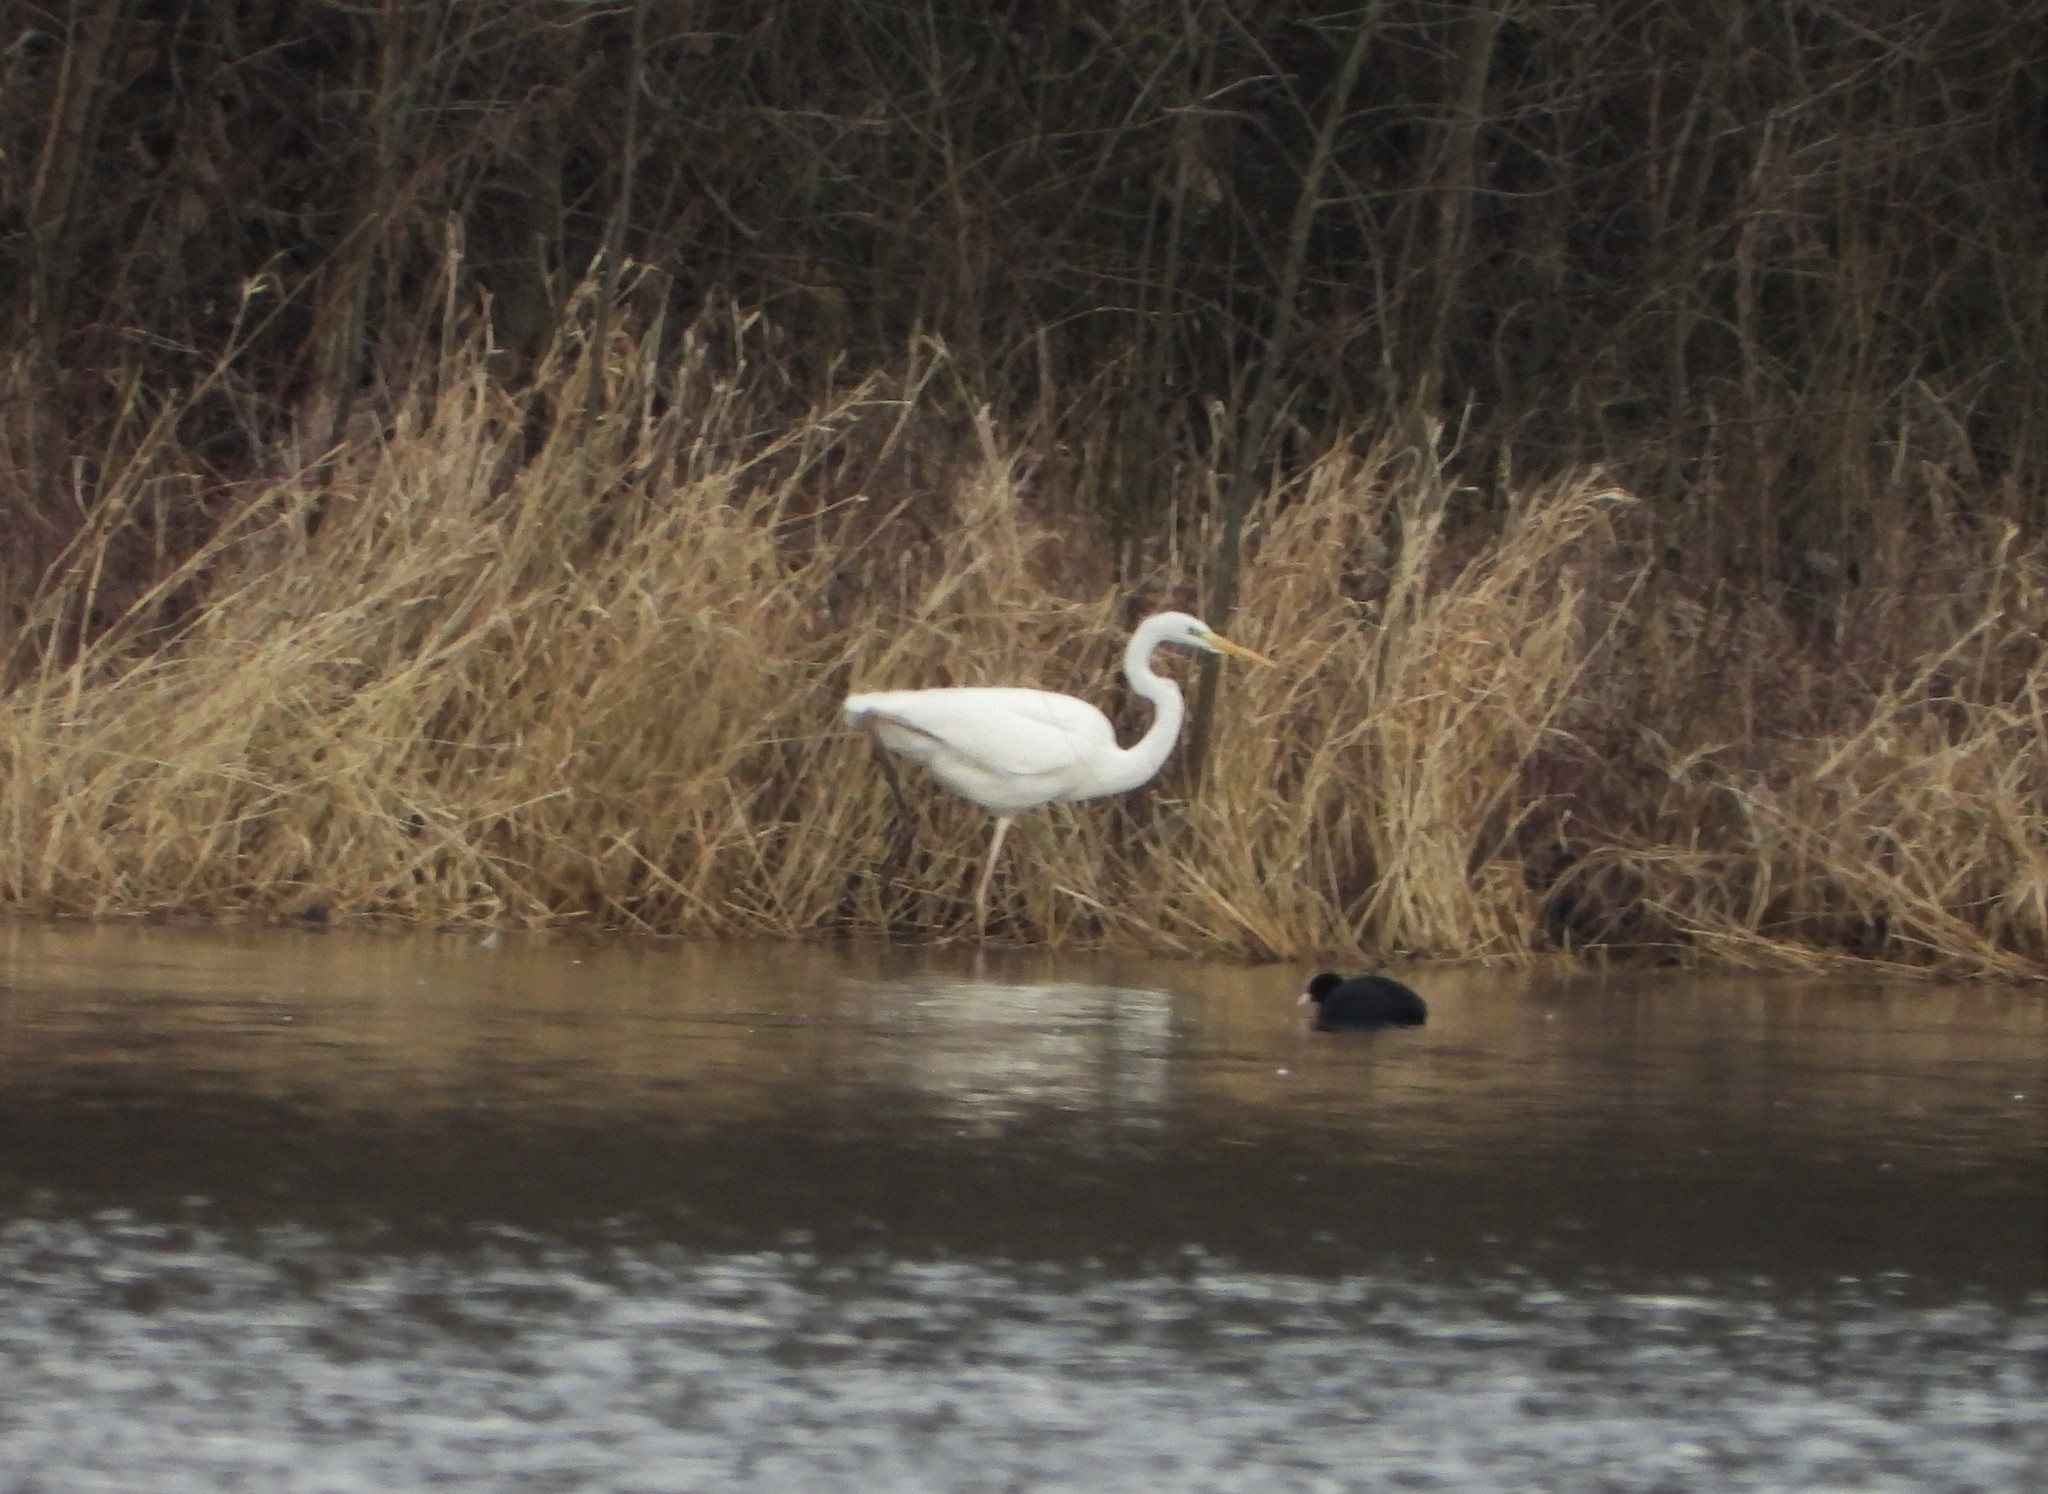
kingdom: Animalia
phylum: Chordata
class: Aves
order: Pelecaniformes
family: Ardeidae
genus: Ardea
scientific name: Ardea alba
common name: Great egret
